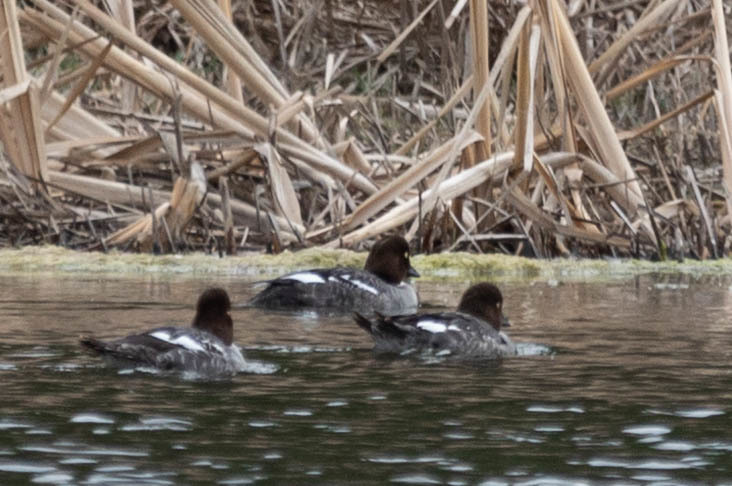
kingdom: Animalia
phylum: Chordata
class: Aves
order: Anseriformes
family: Anatidae
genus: Bucephala
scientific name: Bucephala clangula
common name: Common goldeneye
